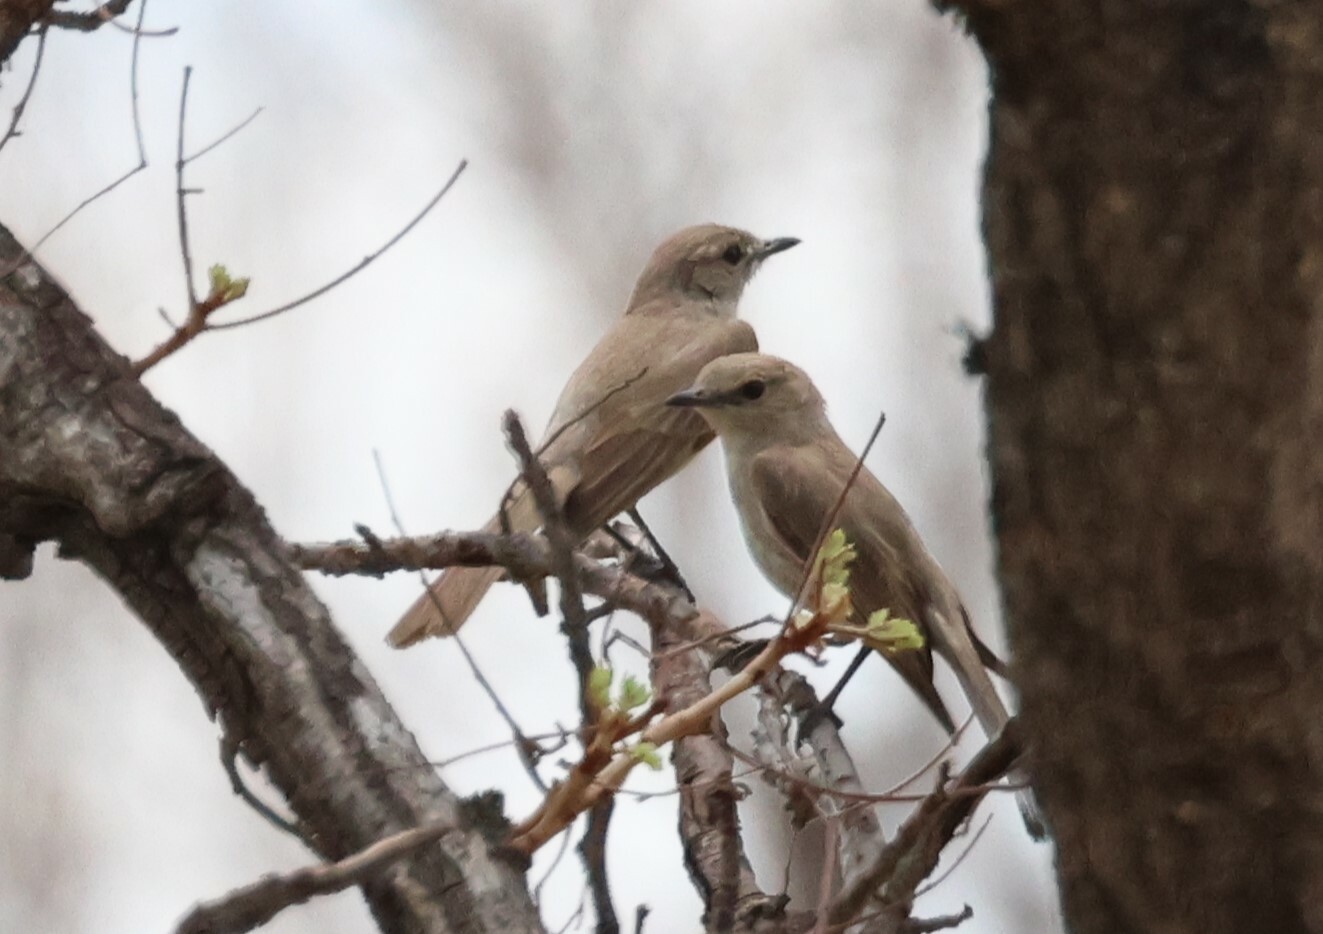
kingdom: Animalia
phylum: Chordata
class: Aves
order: Passeriformes
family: Muscicapidae
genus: Bradornis
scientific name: Bradornis pallidus
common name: Pale flycatcher
